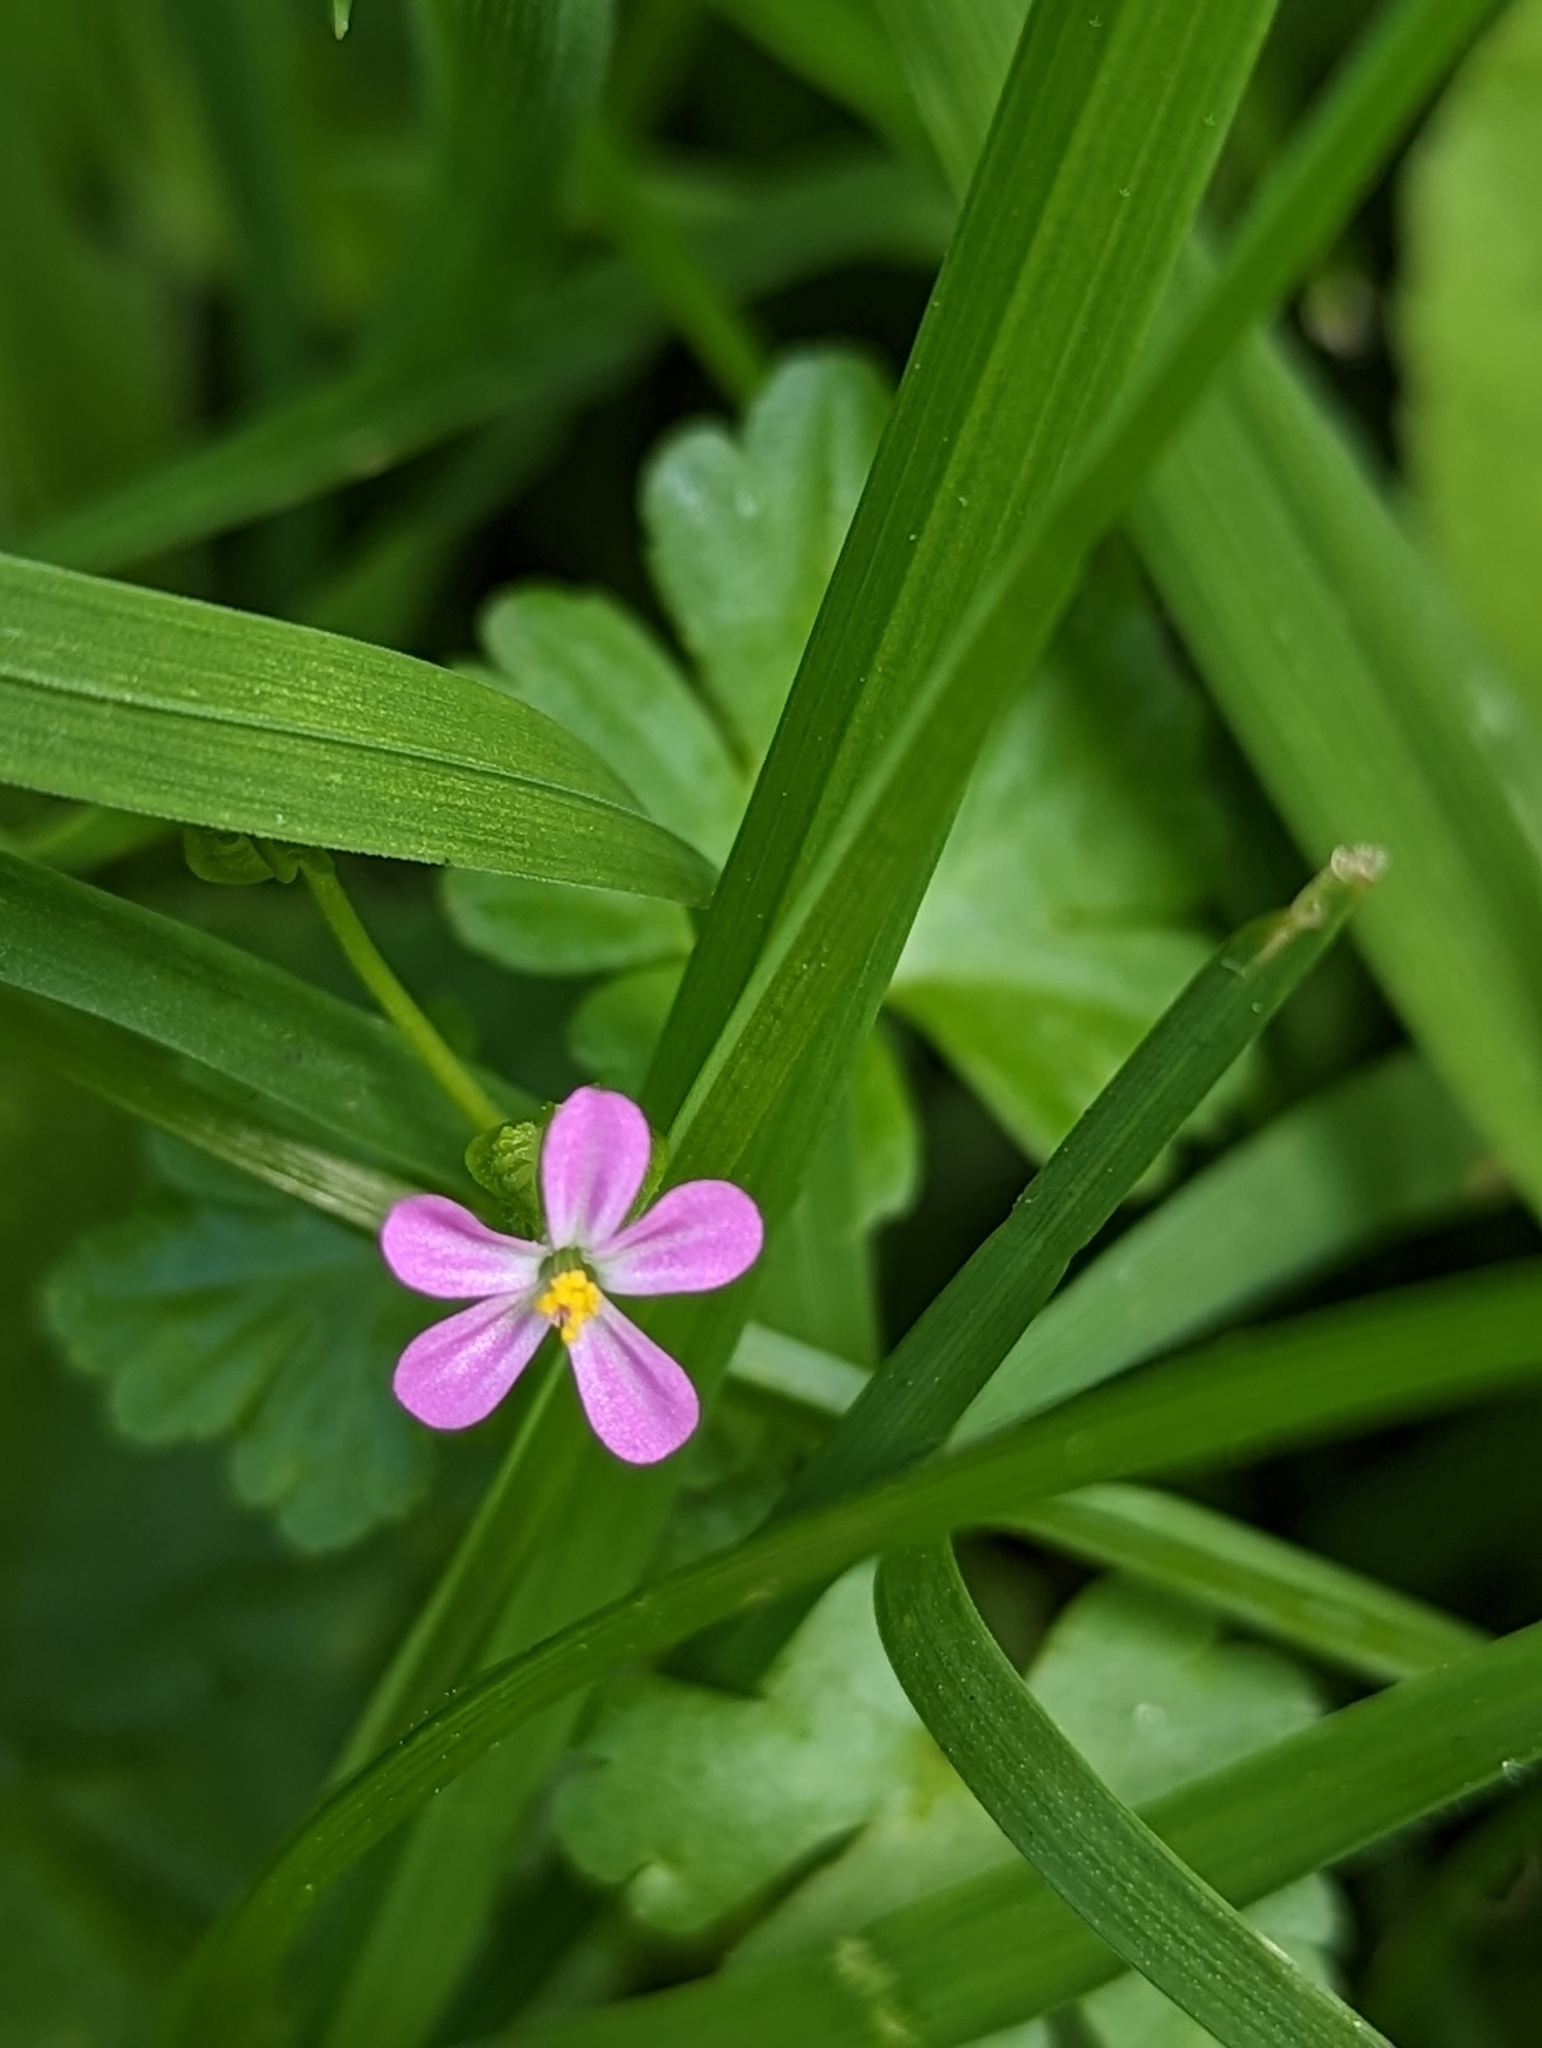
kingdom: Plantae
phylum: Tracheophyta
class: Magnoliopsida
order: Geraniales
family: Geraniaceae
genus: Geranium
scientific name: Geranium lucidum
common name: Shining crane's-bill
